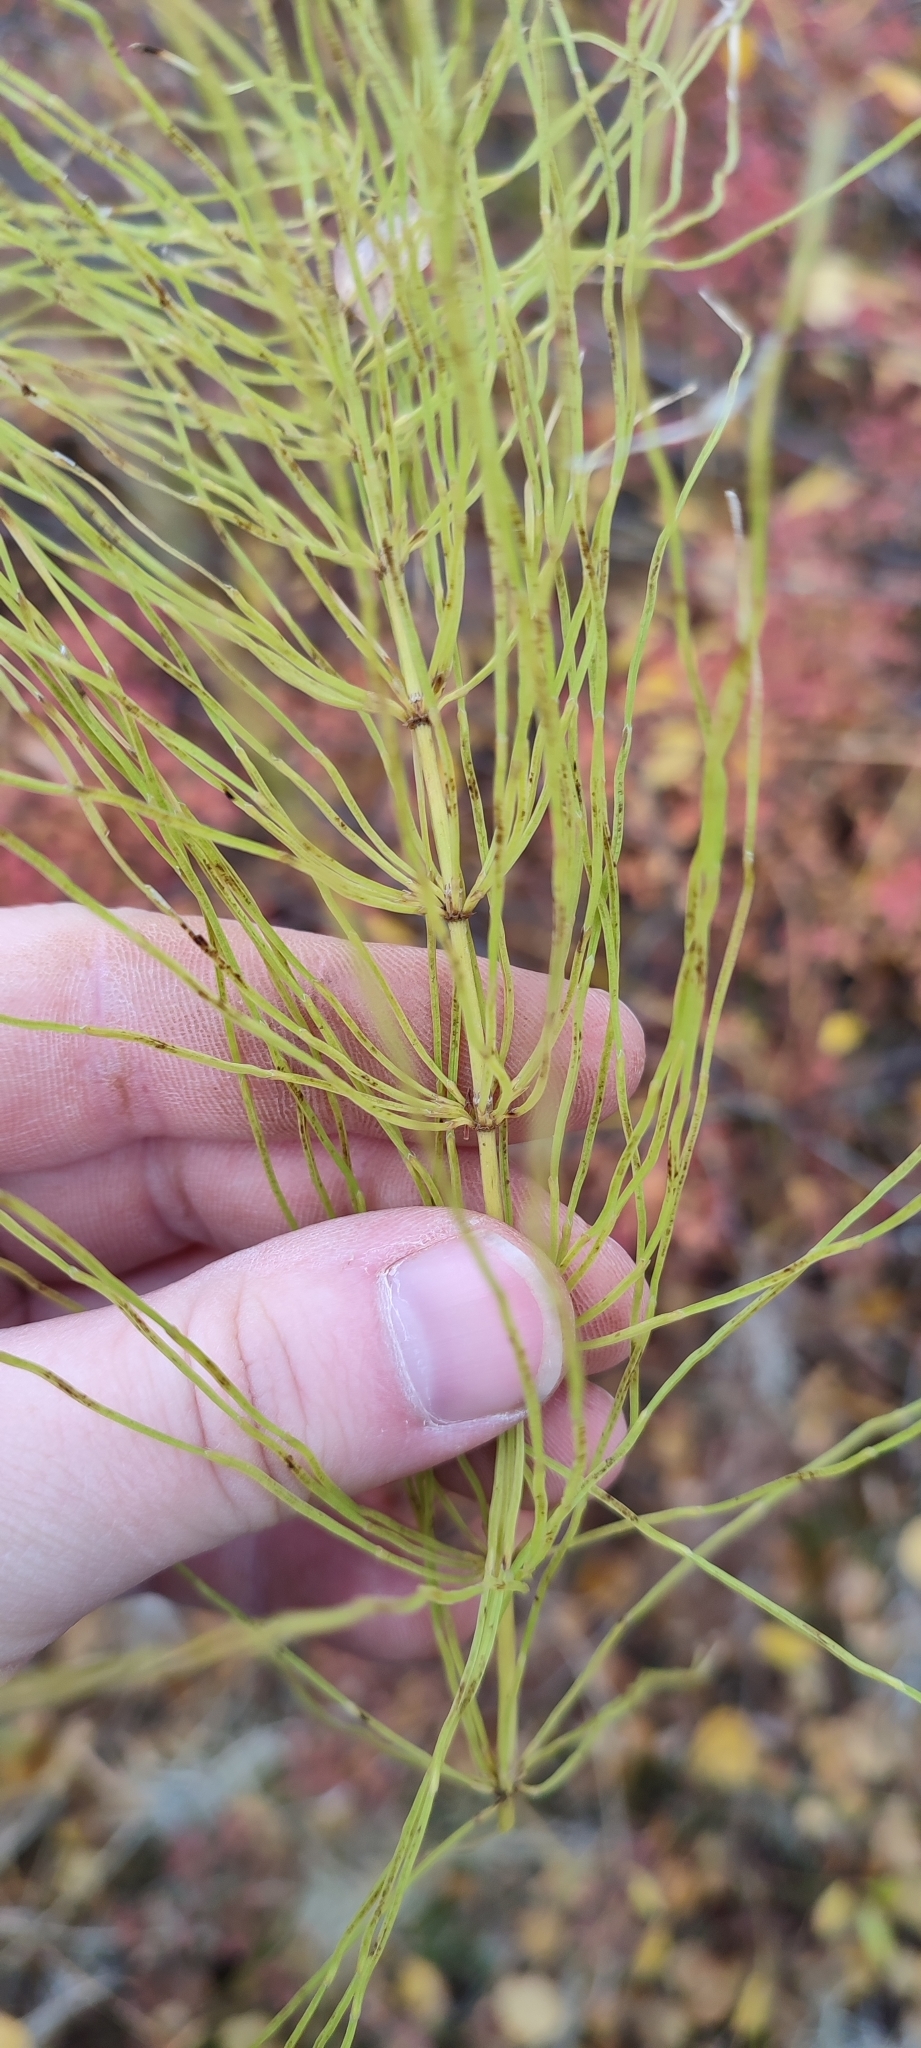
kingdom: Plantae
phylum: Tracheophyta
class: Polypodiopsida
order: Equisetales
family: Equisetaceae
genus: Equisetum
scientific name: Equisetum pratense
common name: Meadow horsetail
